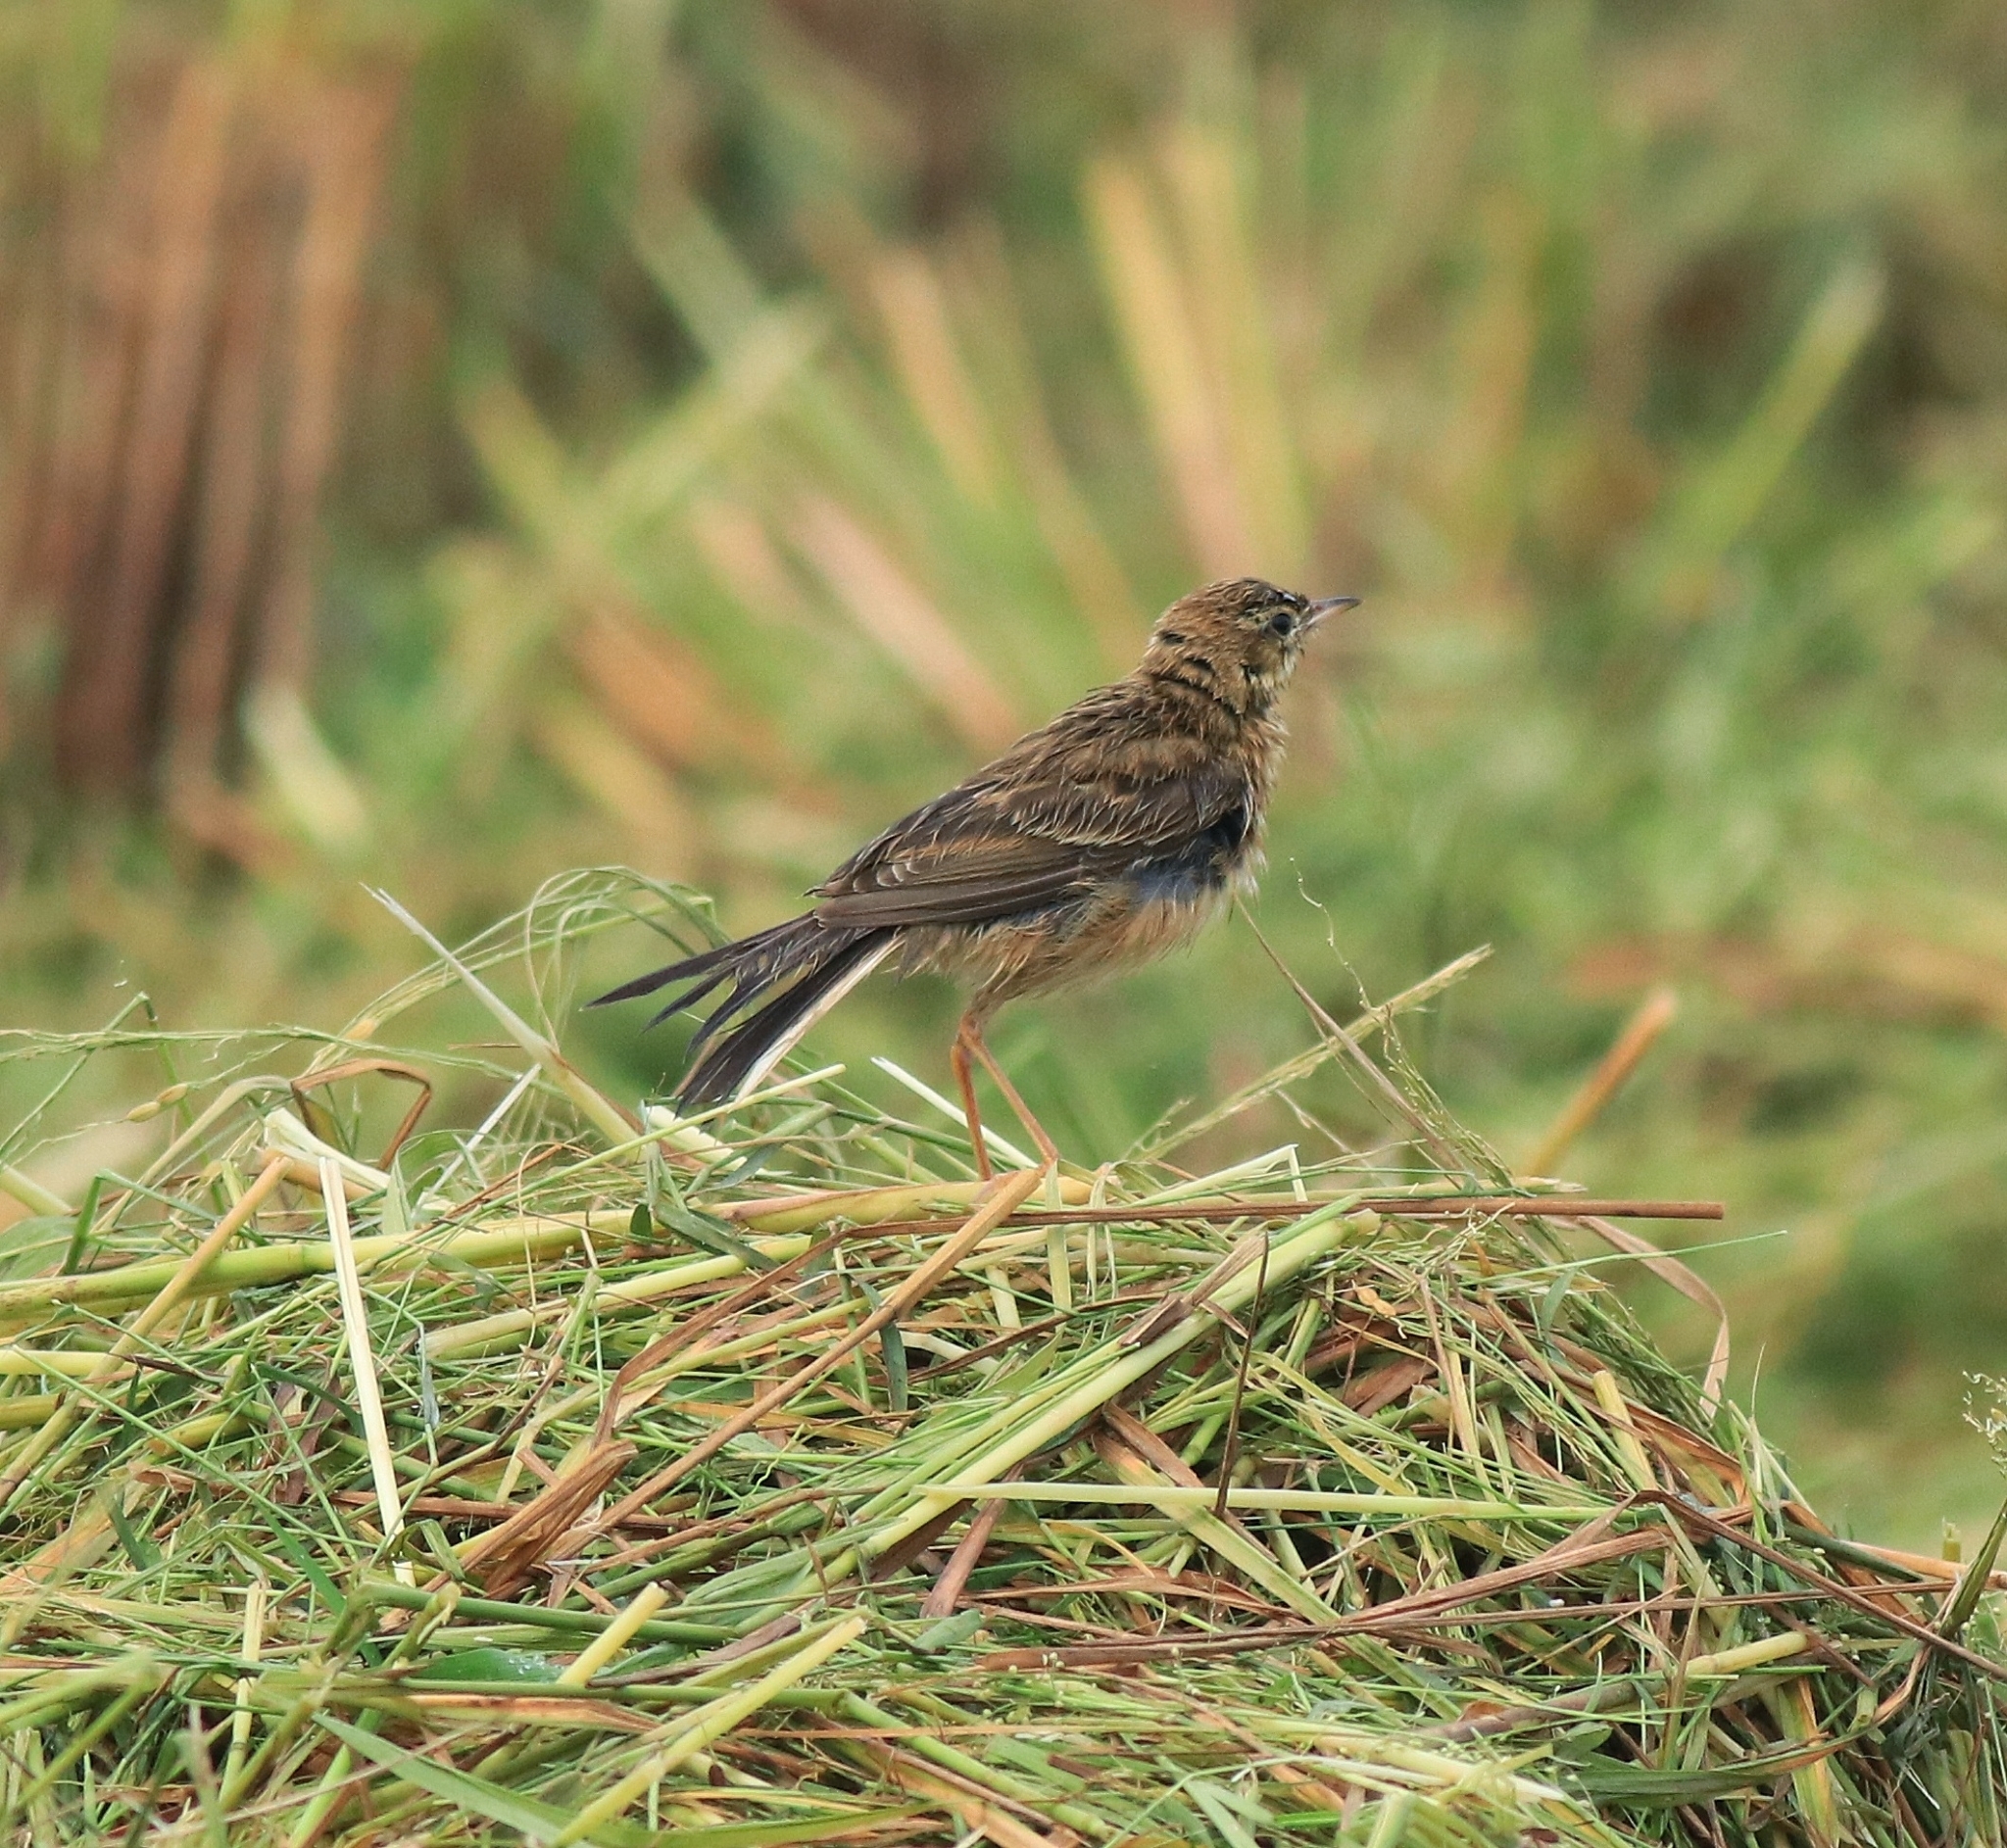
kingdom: Animalia
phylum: Chordata
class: Aves
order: Passeriformes
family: Motacillidae
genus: Anthus
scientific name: Anthus richardi
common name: Richard's pipit
